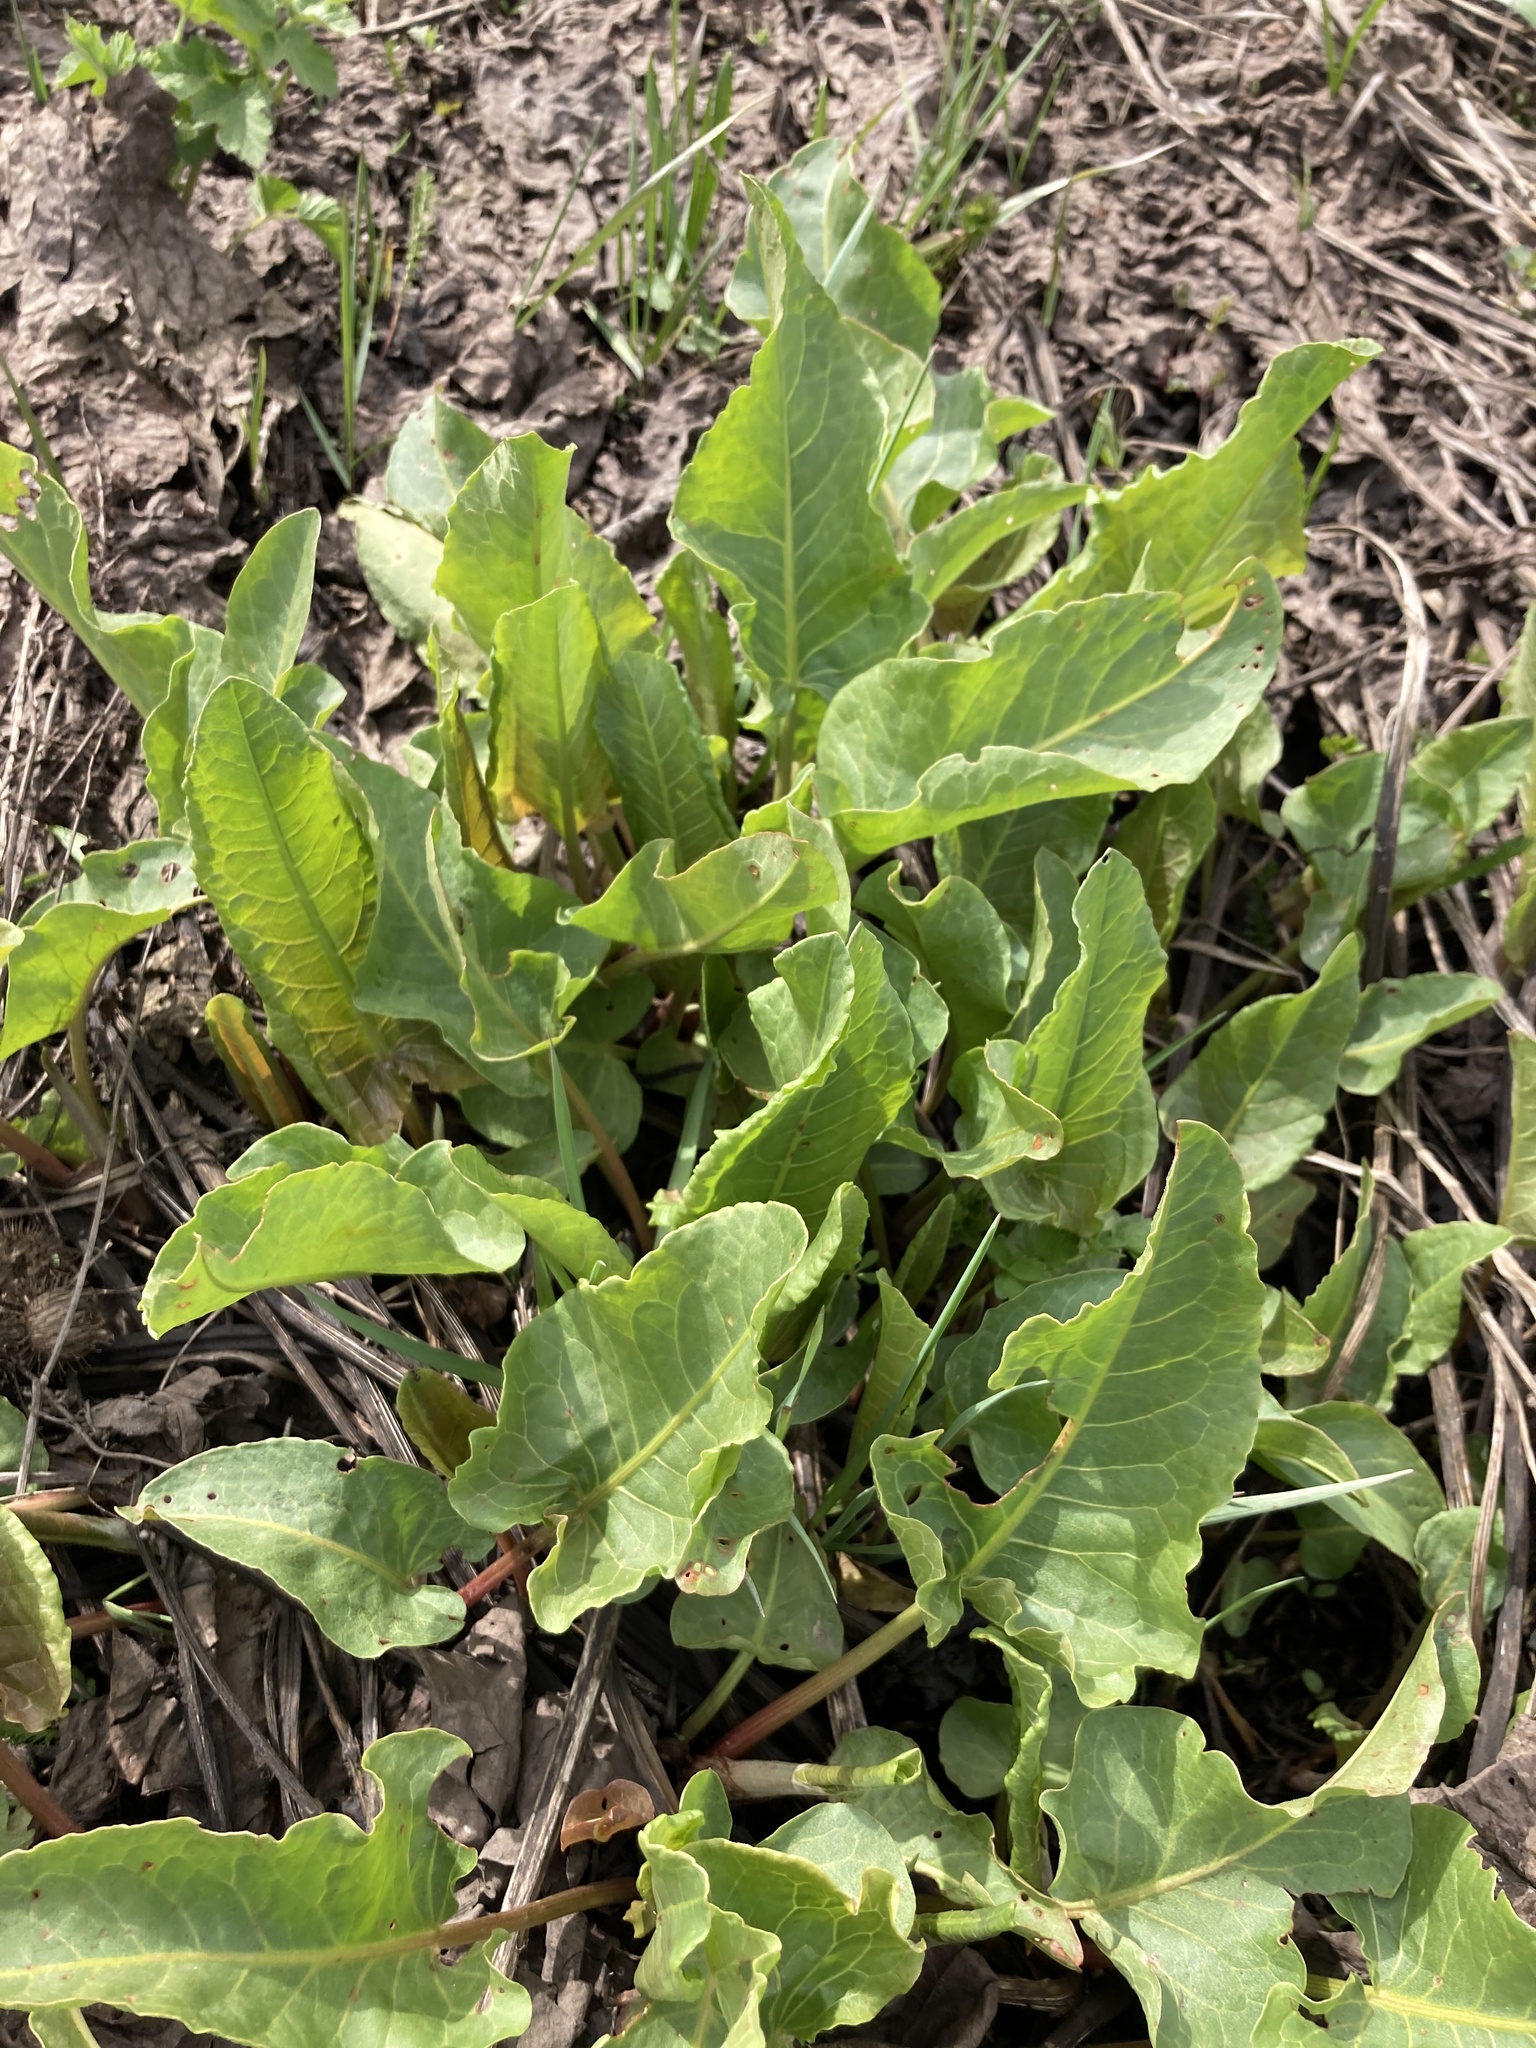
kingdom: Plantae
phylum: Tracheophyta
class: Magnoliopsida
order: Caryophyllales
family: Polygonaceae
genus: Rumex
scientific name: Rumex confertus
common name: Russian dock
